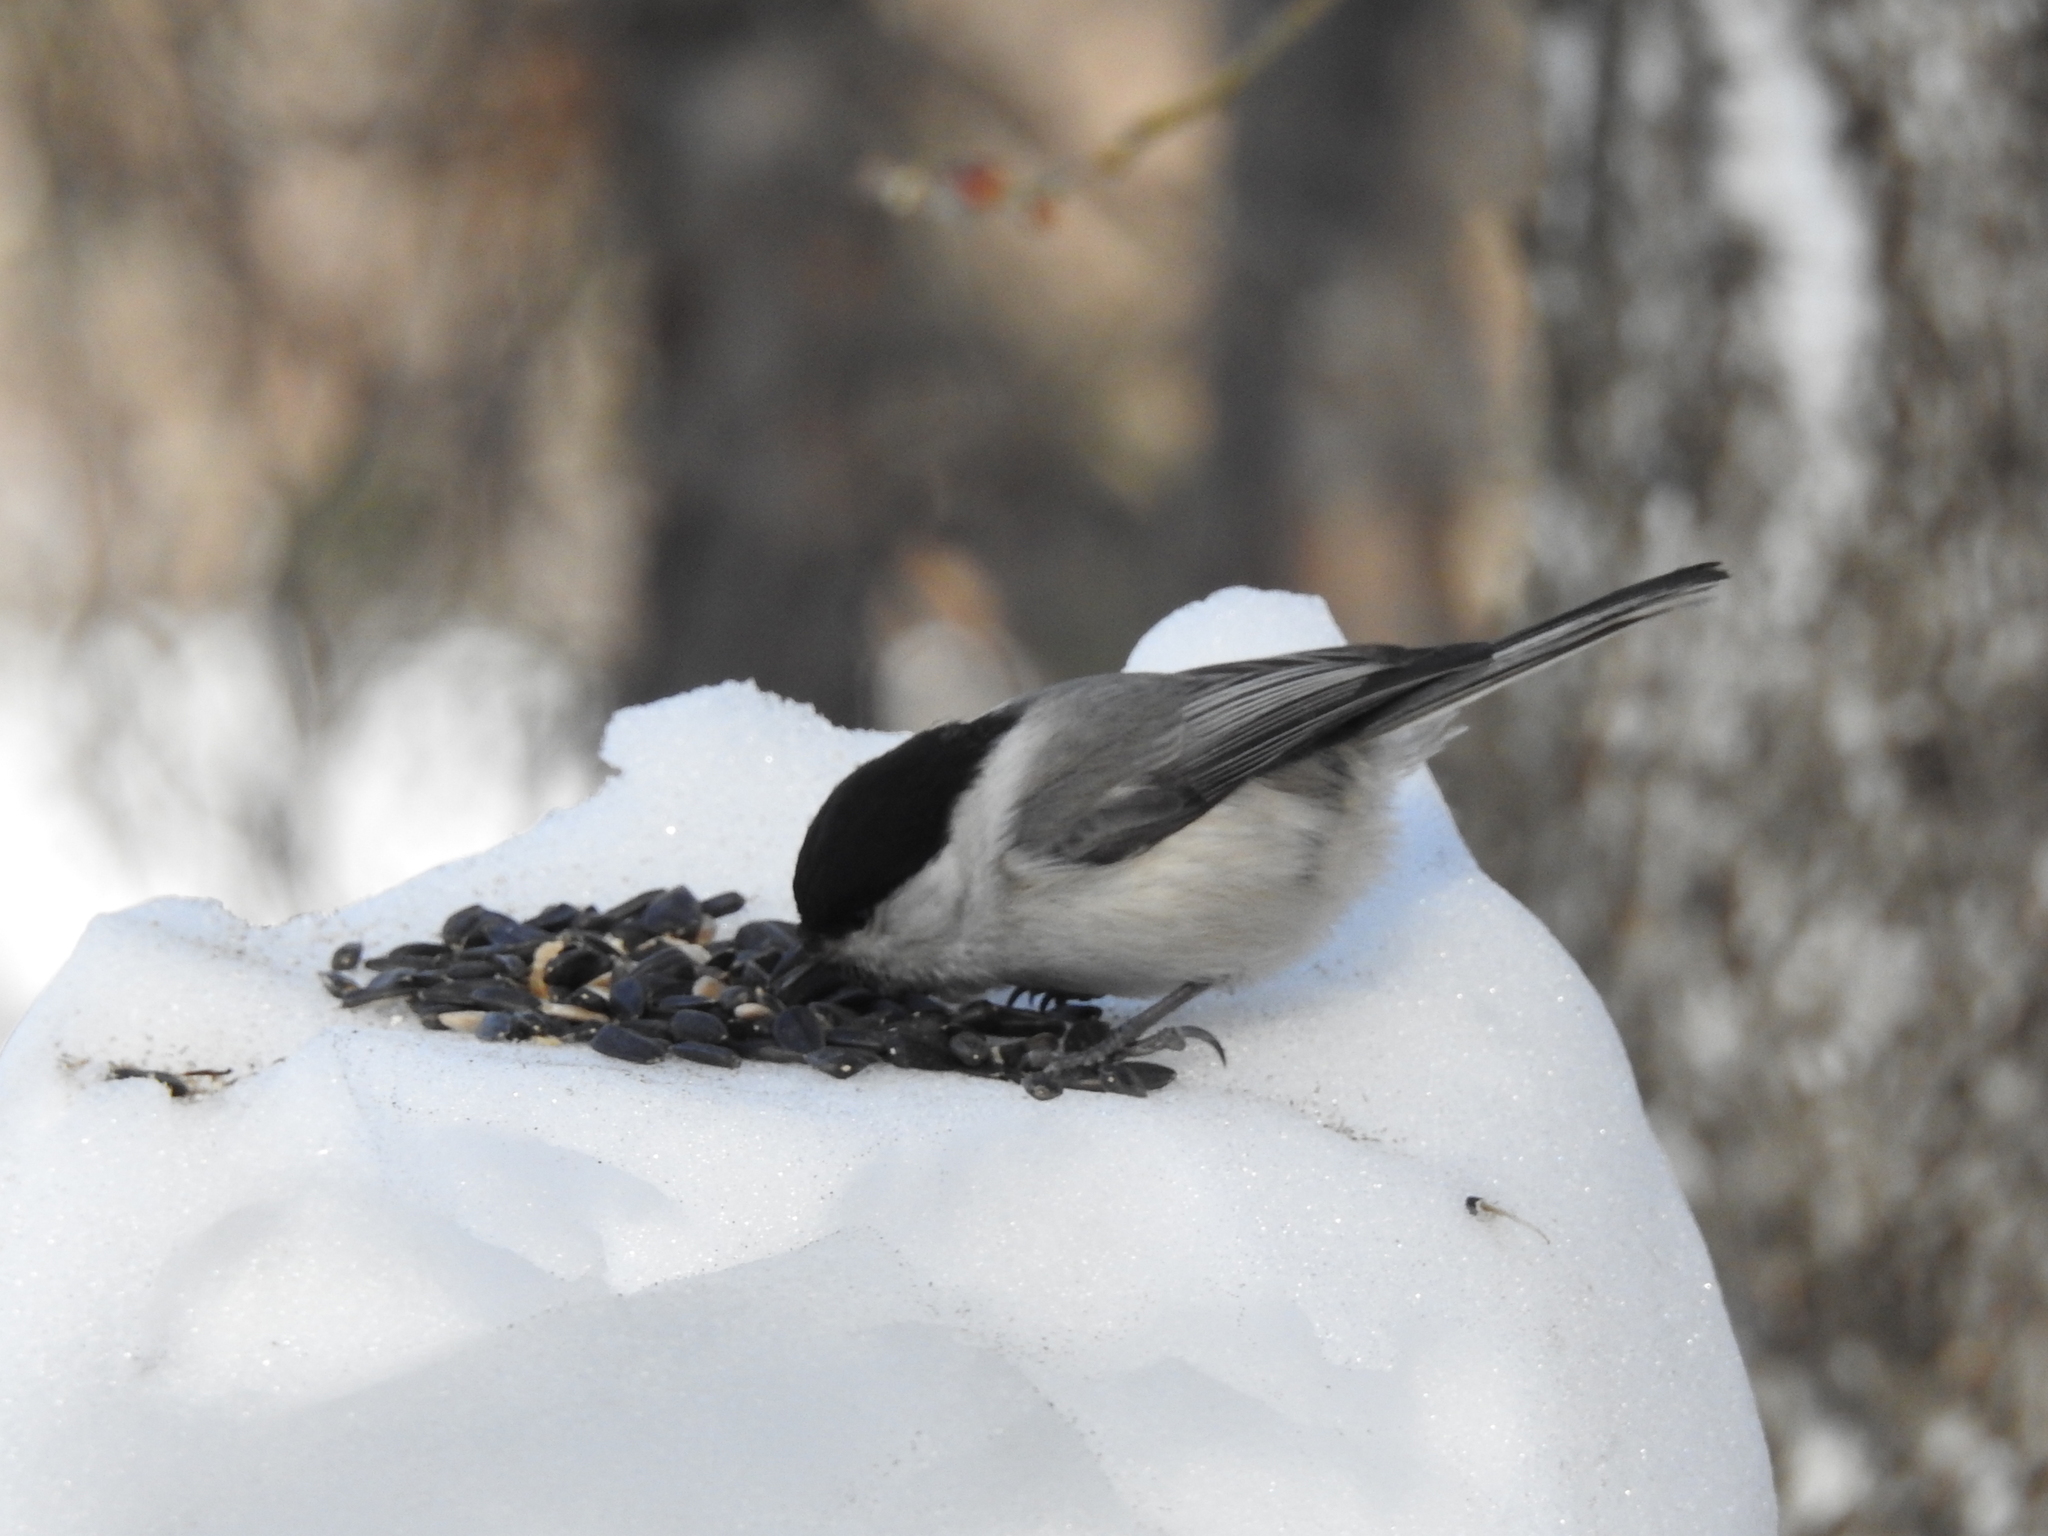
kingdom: Animalia
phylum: Chordata
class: Aves
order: Passeriformes
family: Paridae
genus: Poecile
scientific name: Poecile montanus
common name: Willow tit
